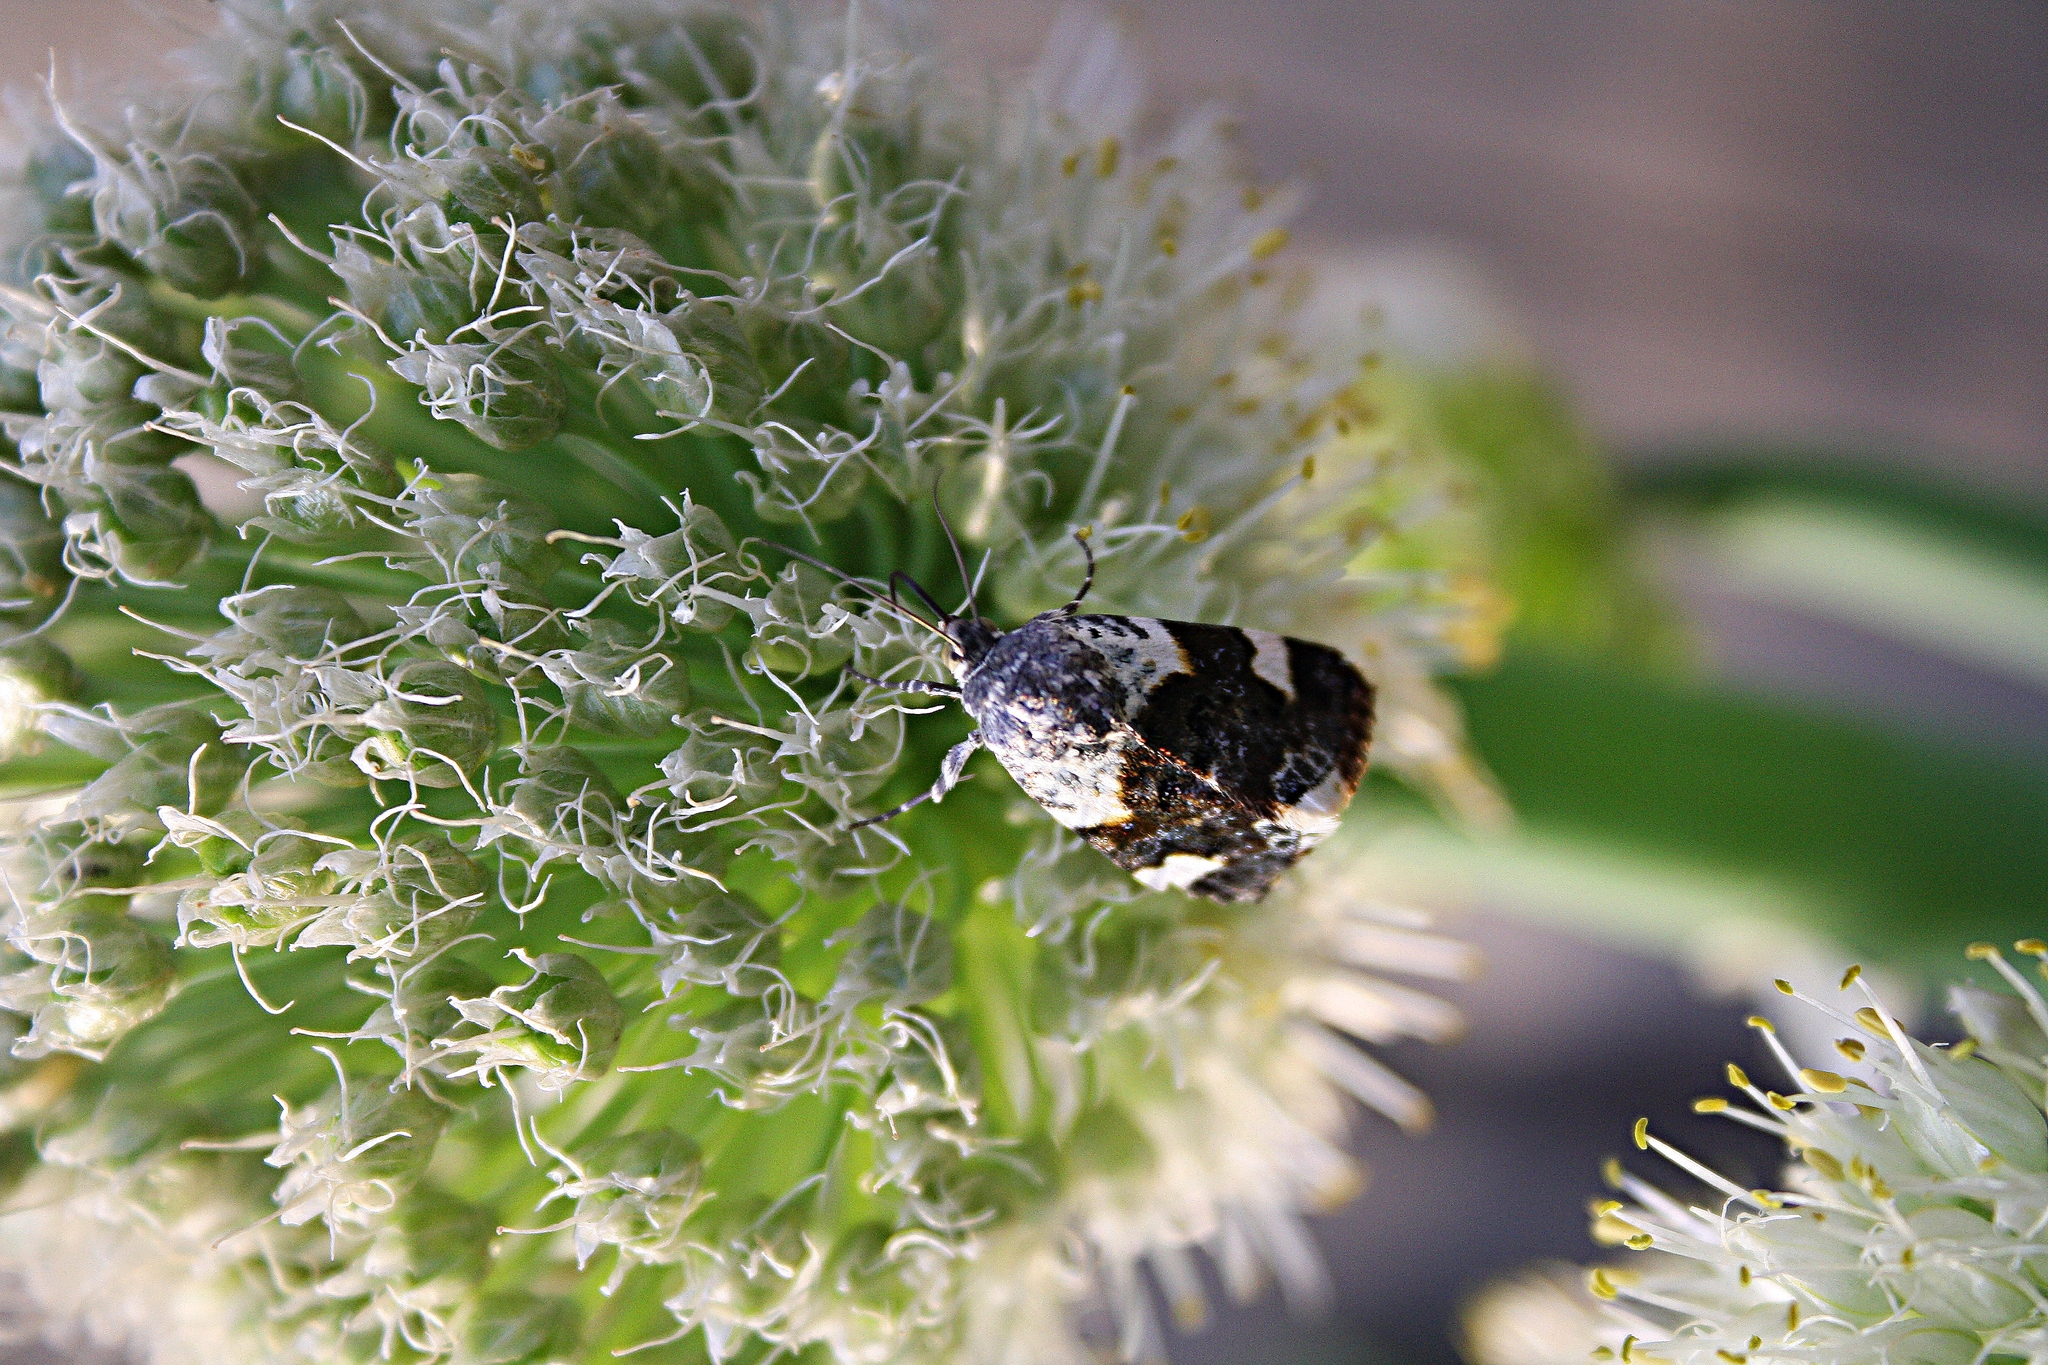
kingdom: Animalia
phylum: Arthropoda
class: Insecta
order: Lepidoptera
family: Noctuidae
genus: Acontia
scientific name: Acontia lucida
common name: Pale shoulder
